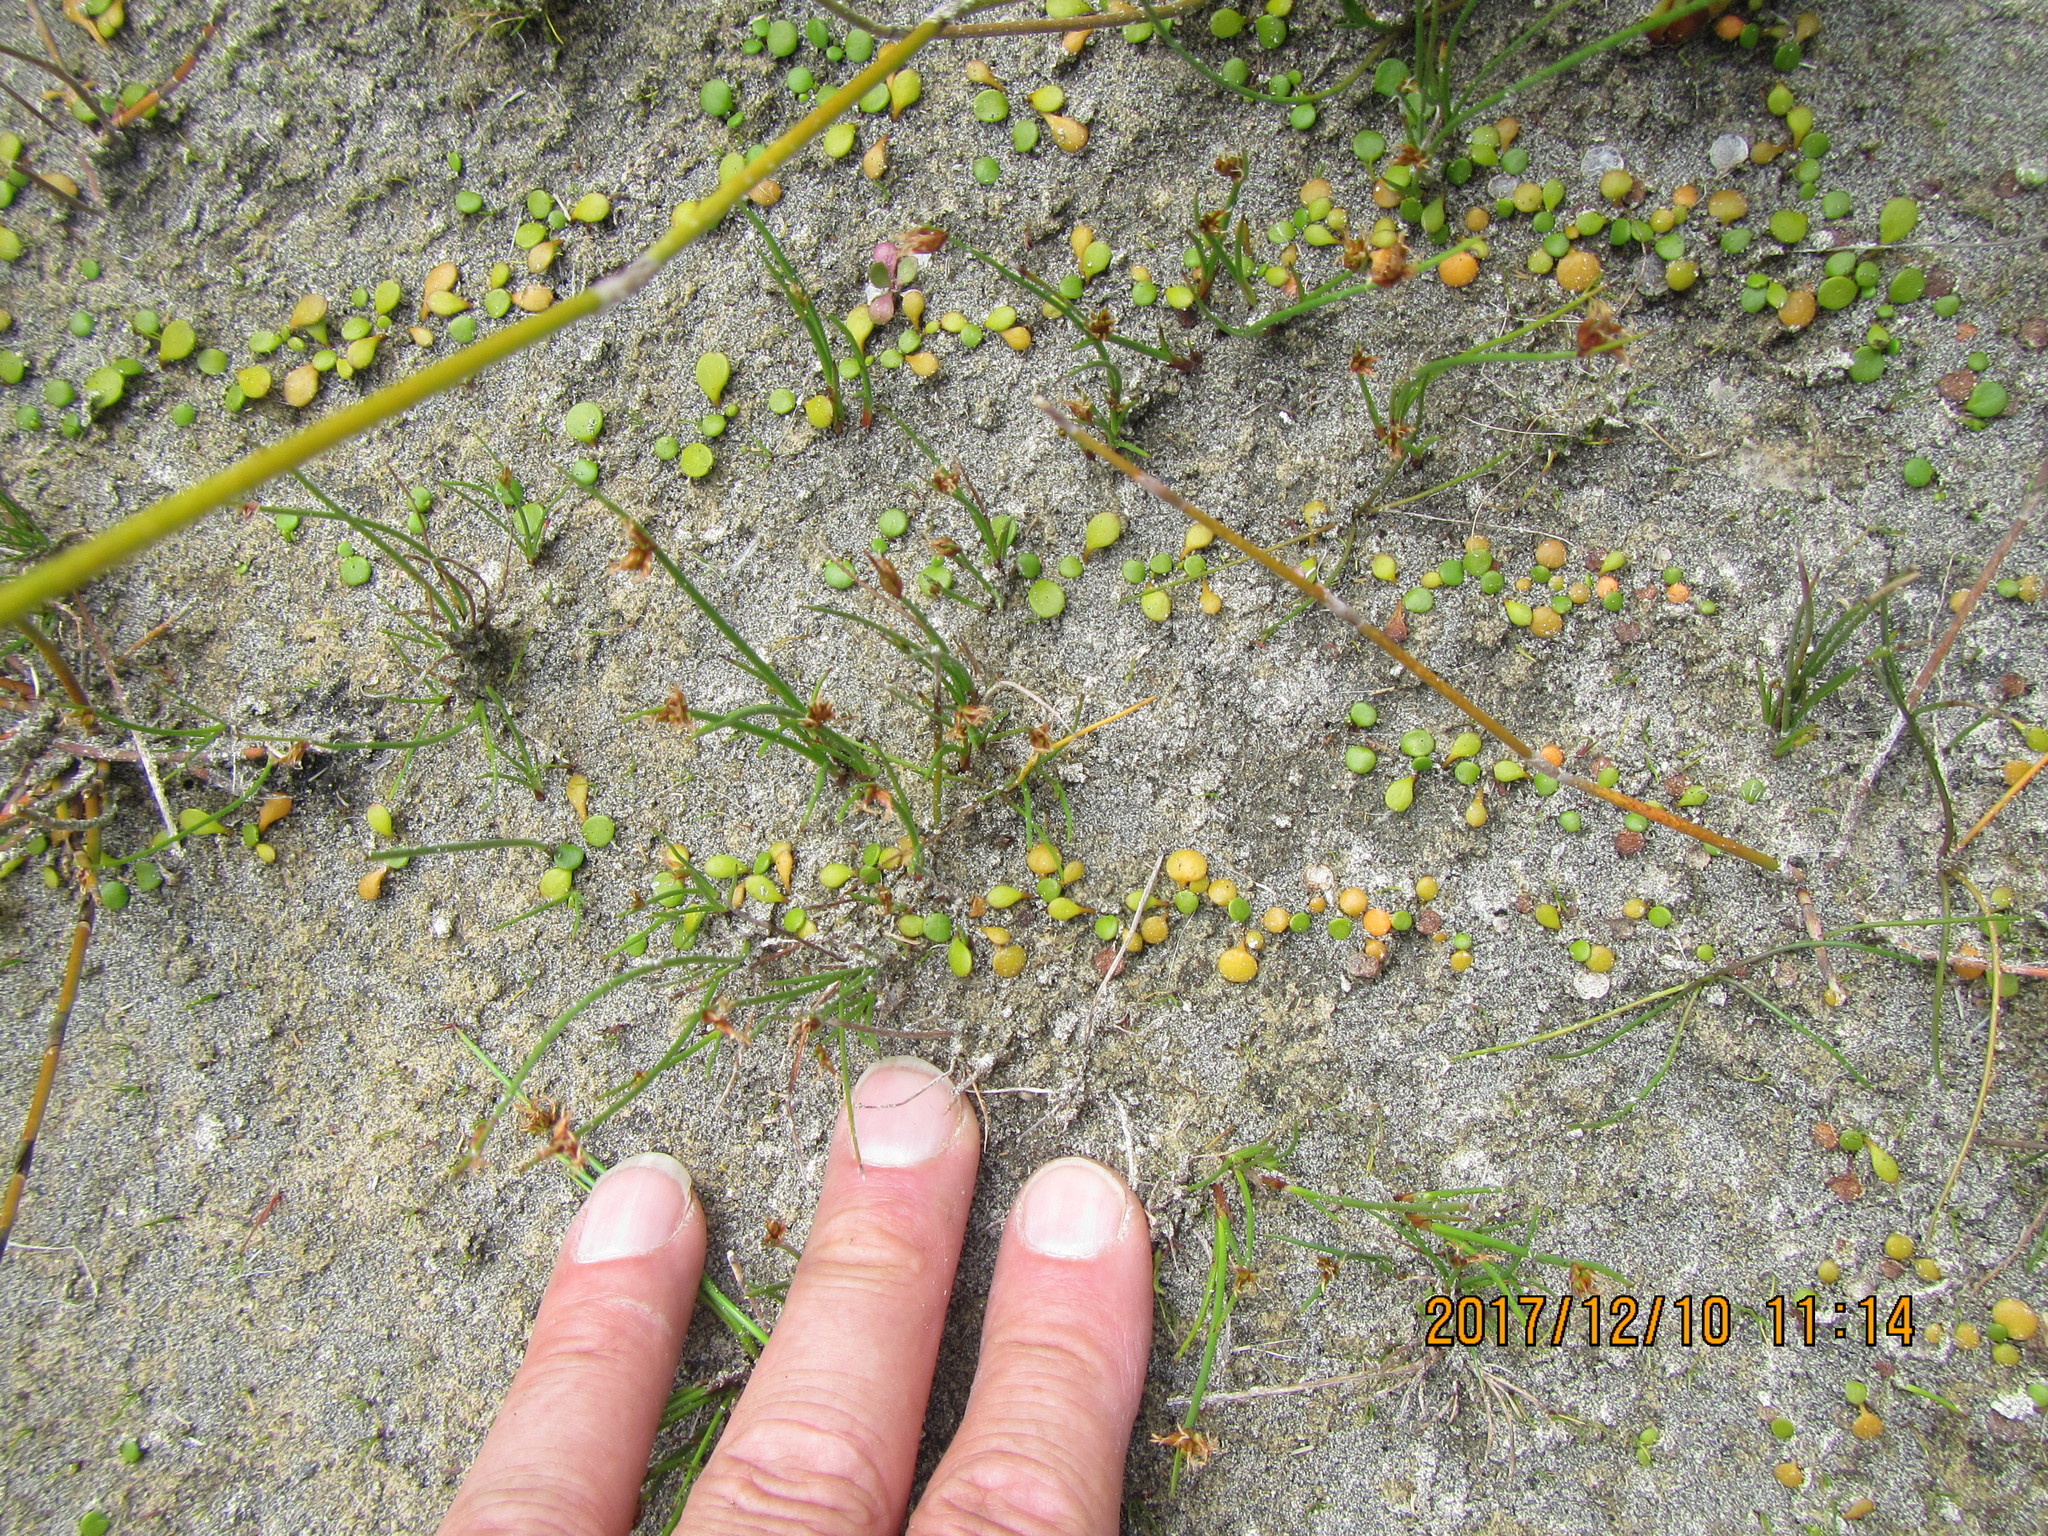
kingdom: Plantae
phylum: Tracheophyta
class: Magnoliopsida
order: Asterales
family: Goodeniaceae
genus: Goodenia
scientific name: Goodenia heenanii
